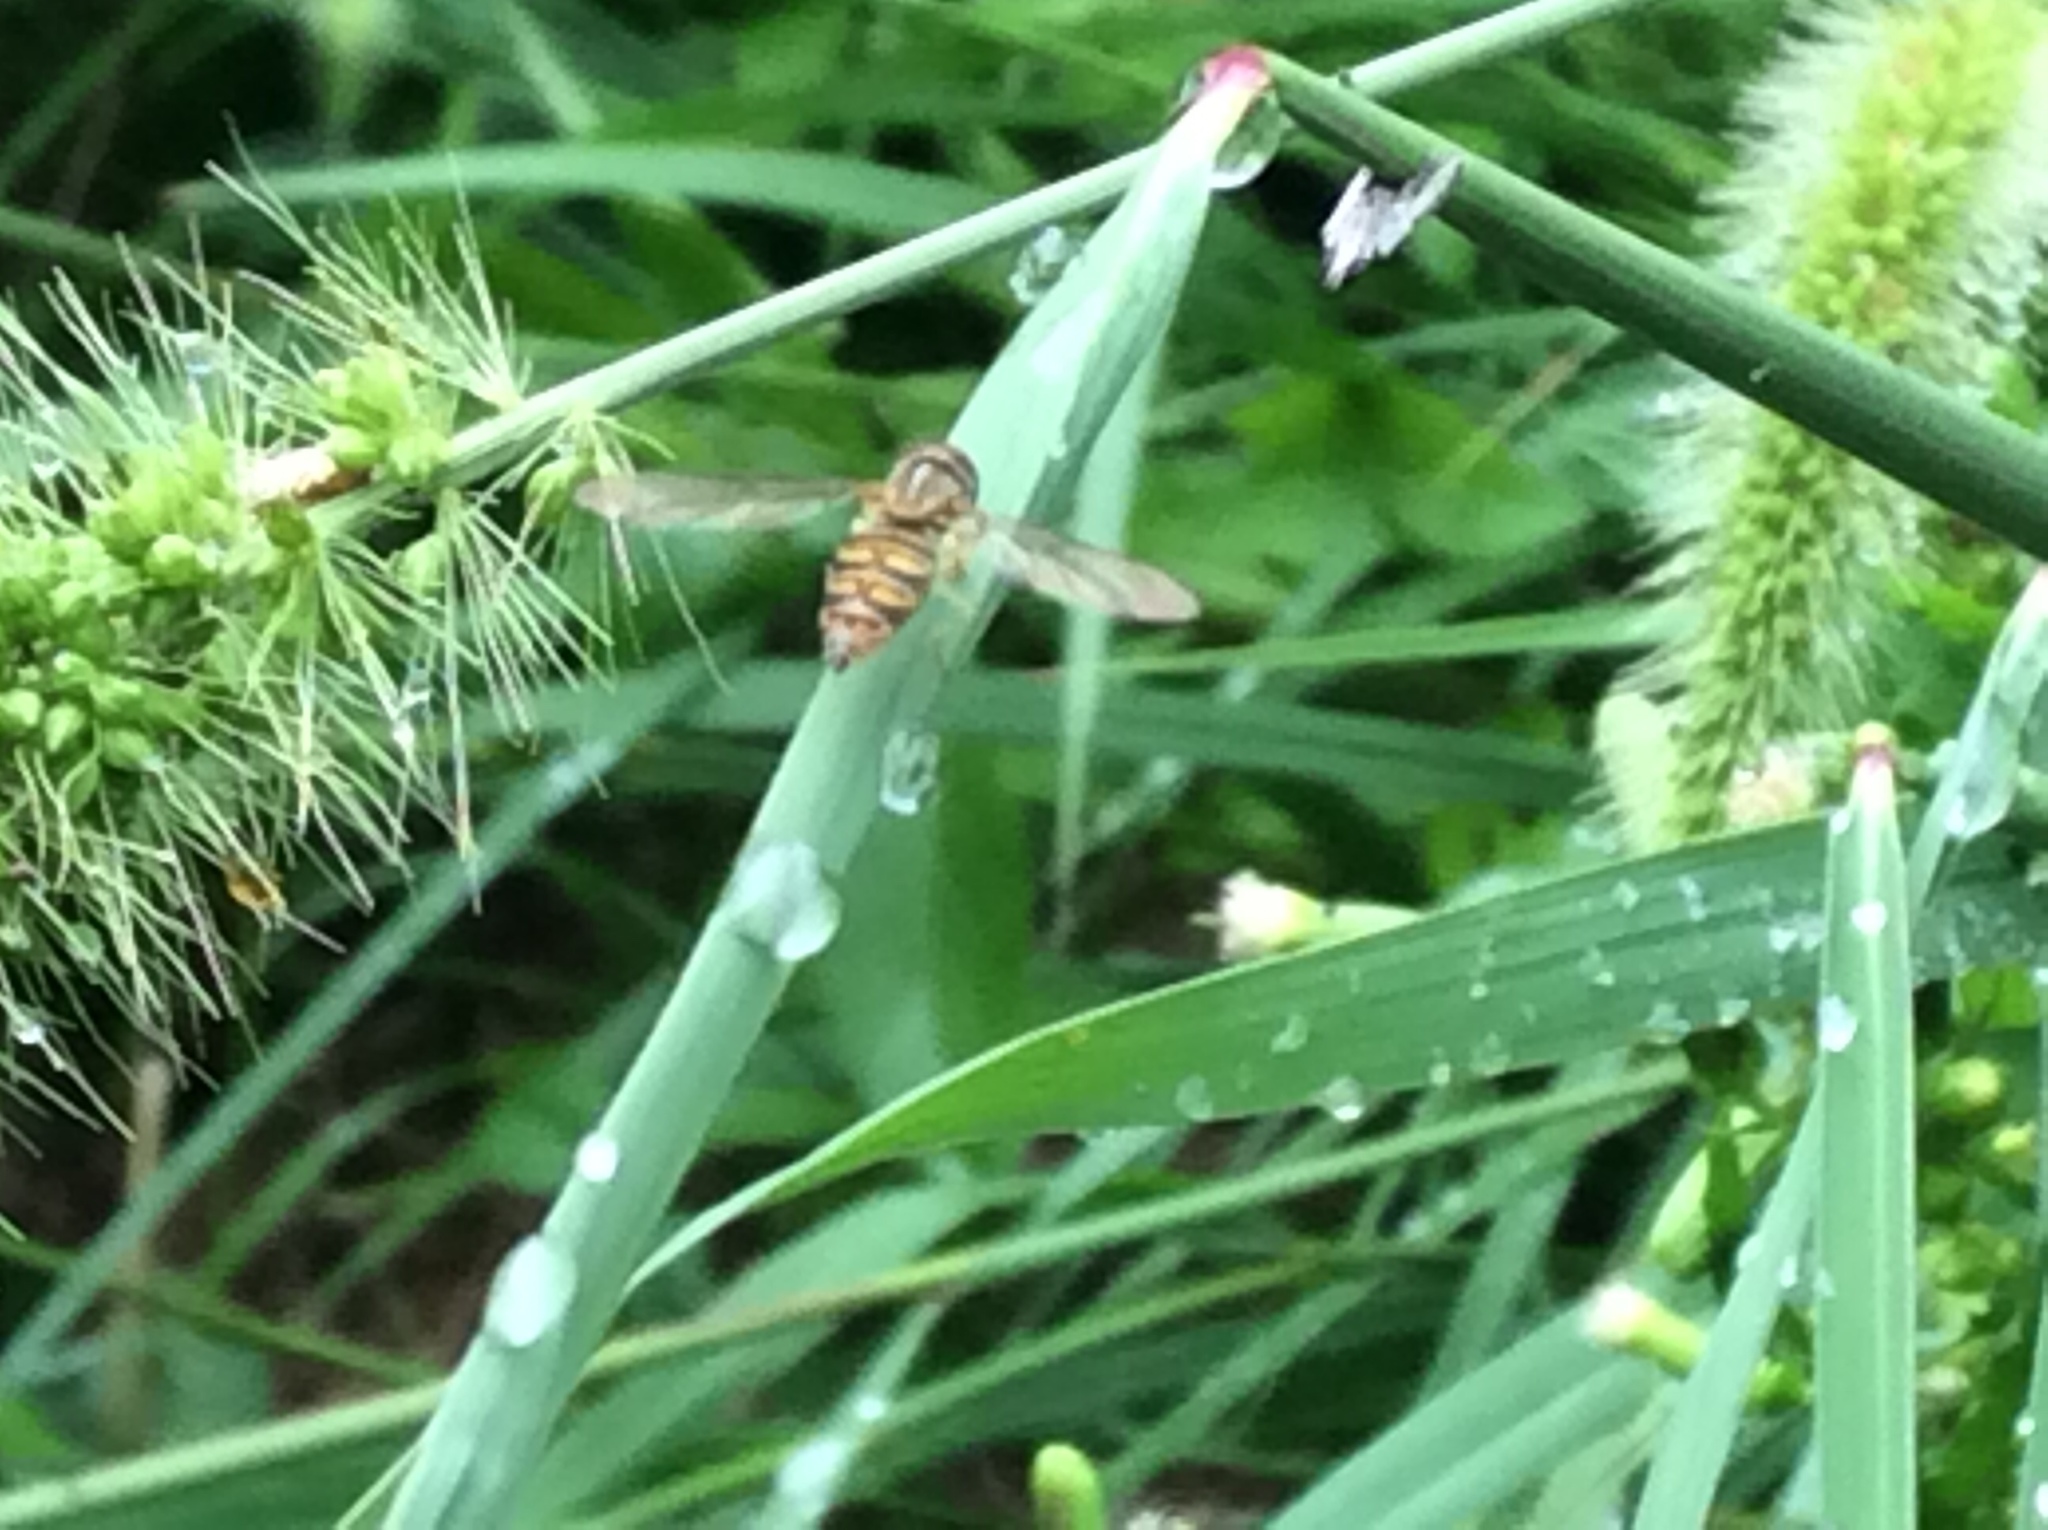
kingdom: Animalia
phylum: Arthropoda
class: Insecta
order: Diptera
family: Syrphidae
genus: Toxomerus
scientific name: Toxomerus politus
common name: Maize calligrapher
